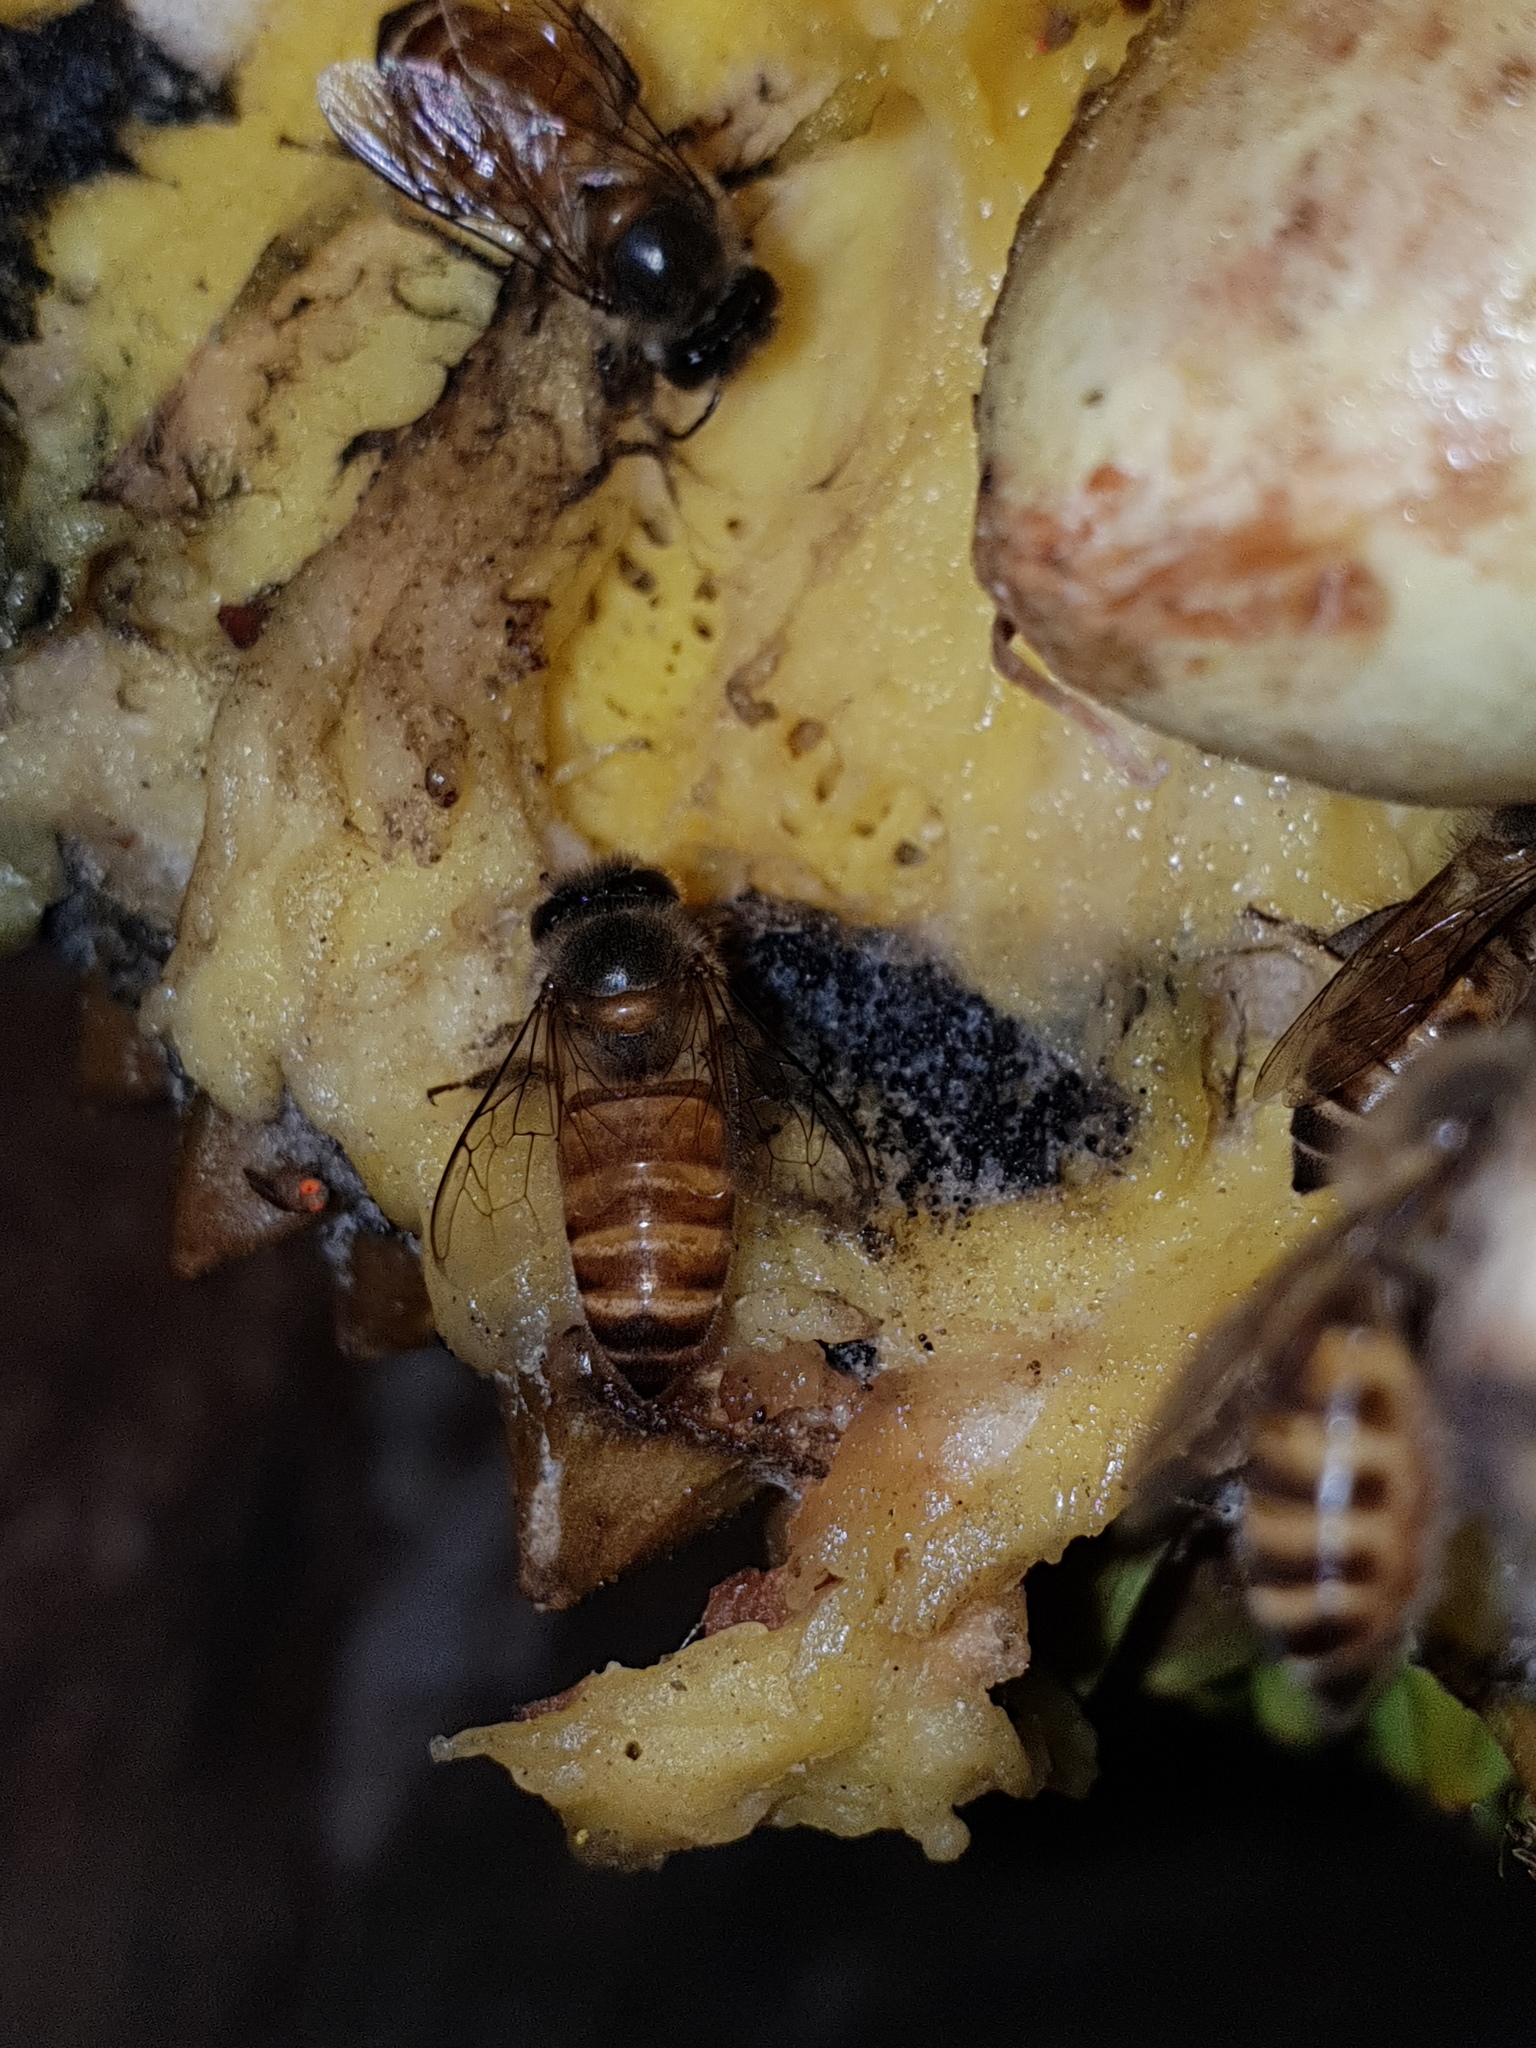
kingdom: Animalia
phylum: Arthropoda
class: Insecta
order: Hymenoptera
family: Apidae
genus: Apis
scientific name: Apis cerana
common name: Honey bee
